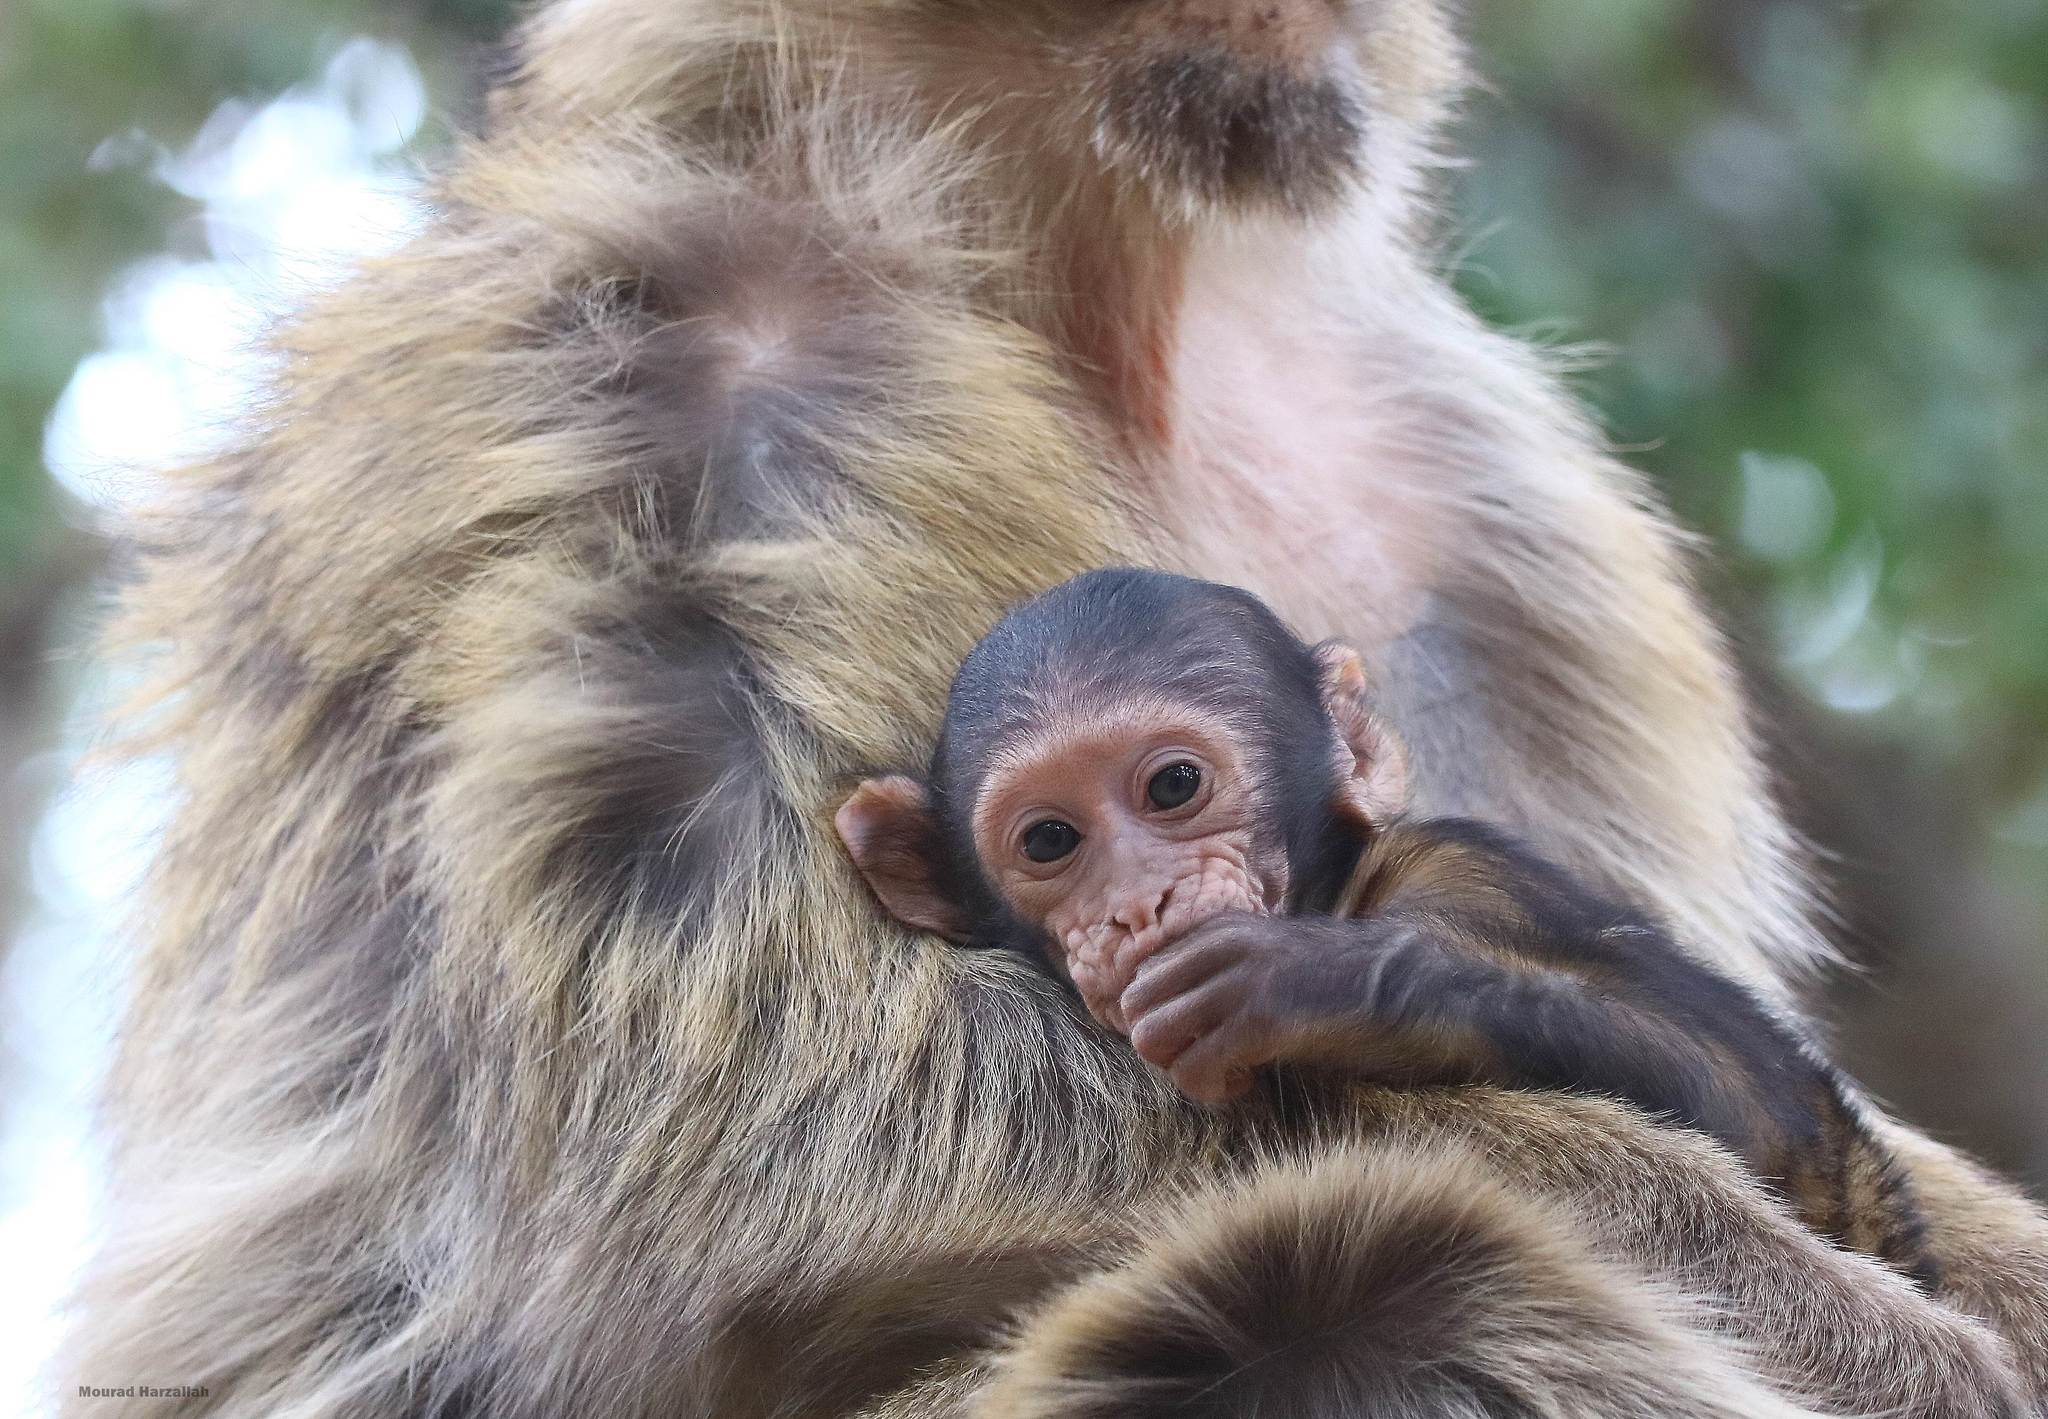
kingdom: Animalia
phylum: Chordata
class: Mammalia
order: Primates
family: Cercopithecidae
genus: Macaca
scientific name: Macaca sylvanus
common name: Barbary macaque
